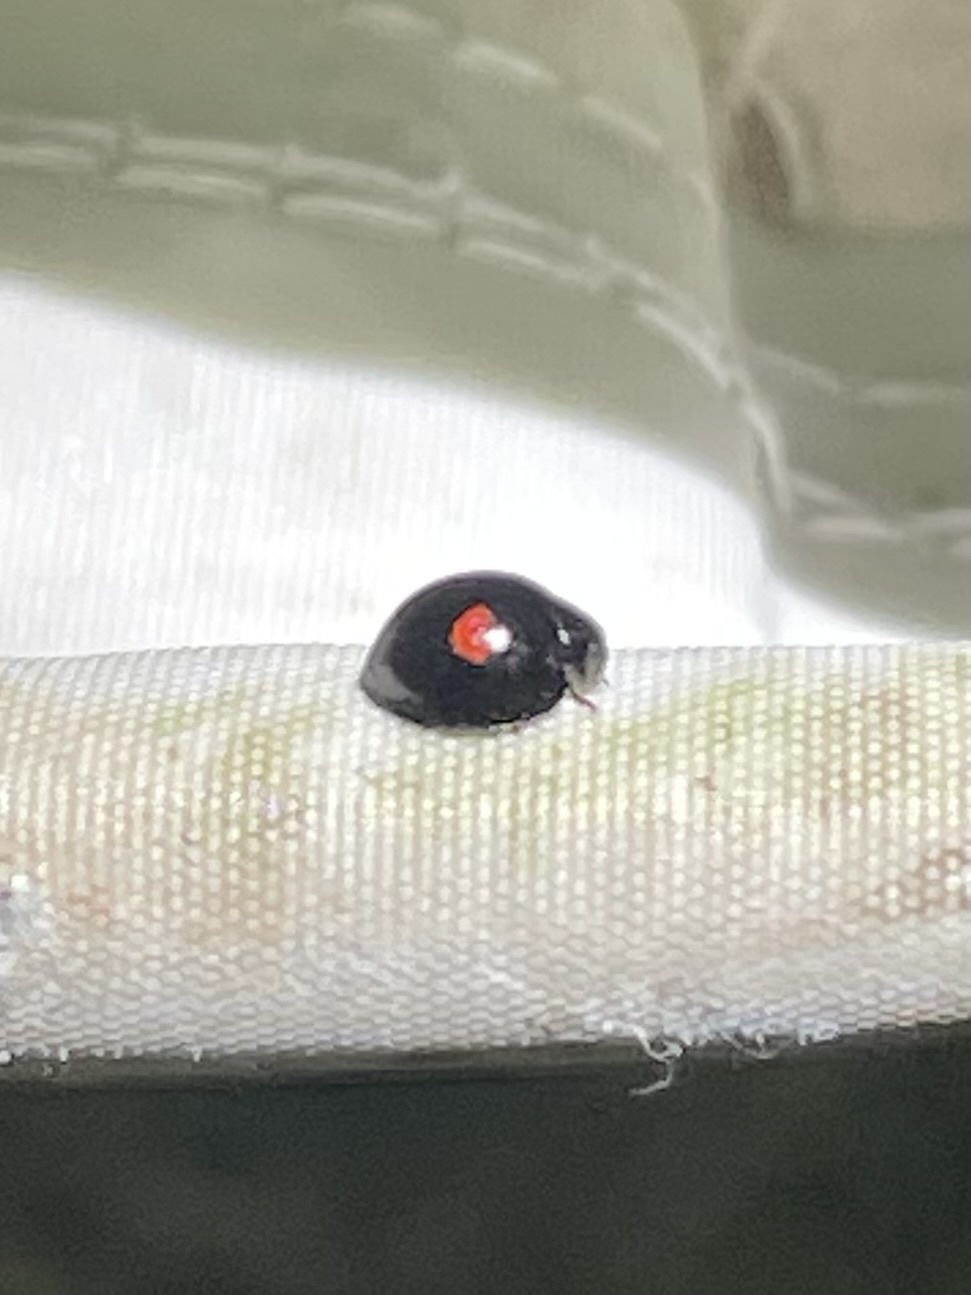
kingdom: Animalia
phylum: Arthropoda
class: Insecta
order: Coleoptera
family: Coccinellidae
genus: Chilocorus
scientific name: Chilocorus stigma
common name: Twicestabbed lady beetle
